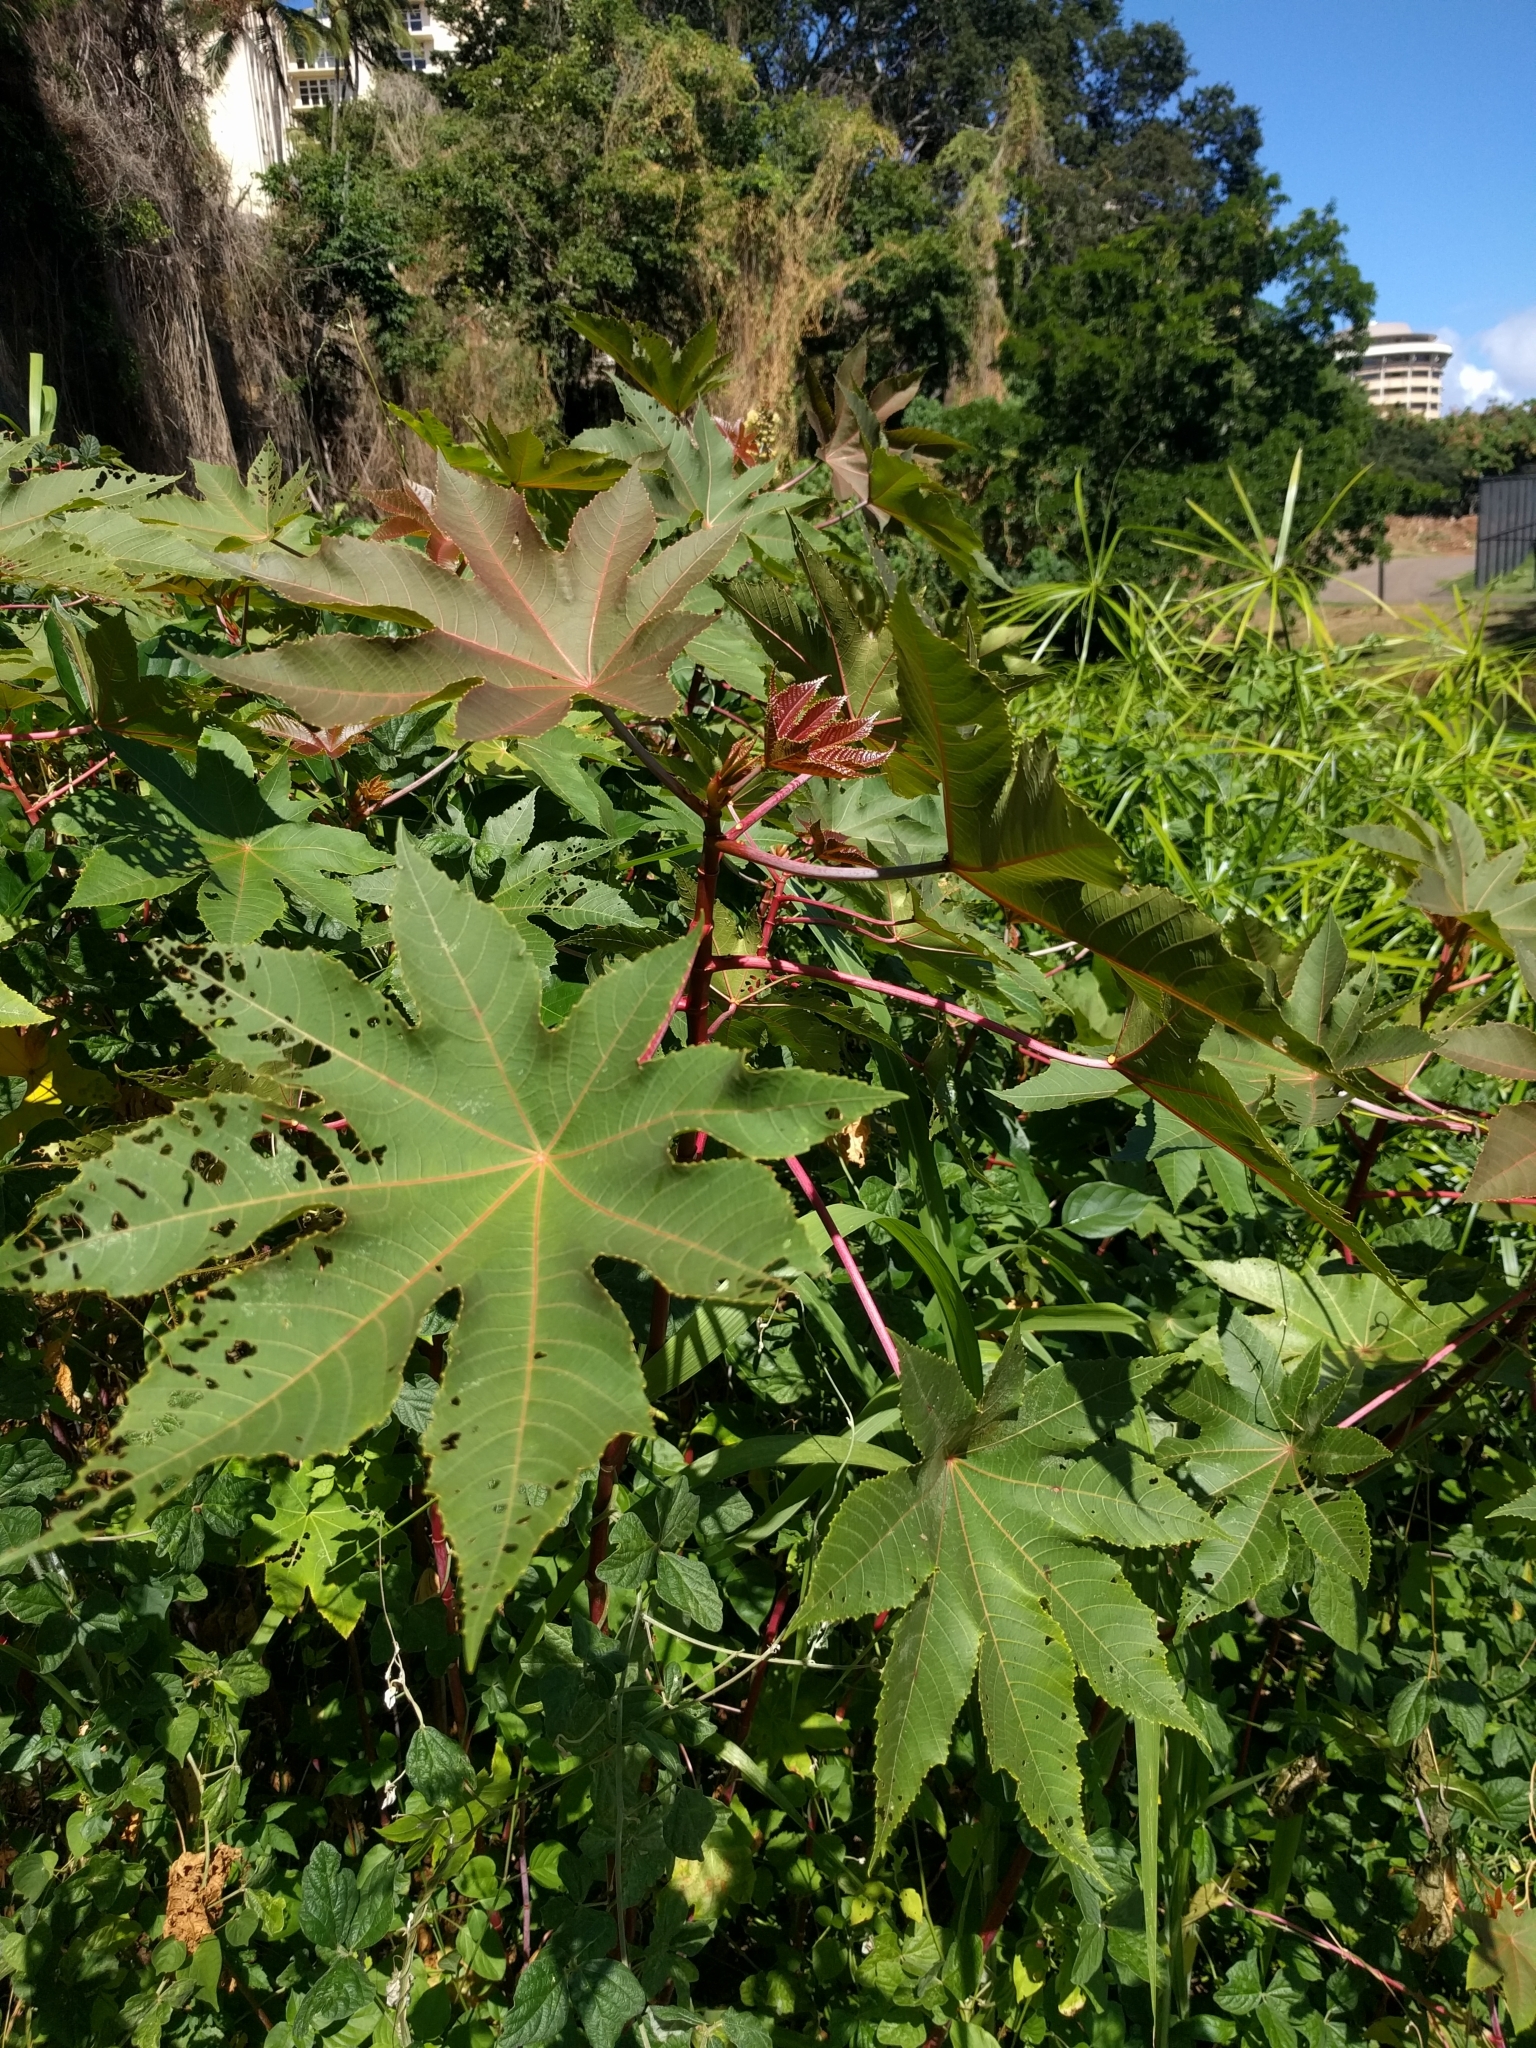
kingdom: Plantae
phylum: Tracheophyta
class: Magnoliopsida
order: Malpighiales
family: Euphorbiaceae
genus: Ricinus
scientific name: Ricinus communis
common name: Castor-oil-plant
